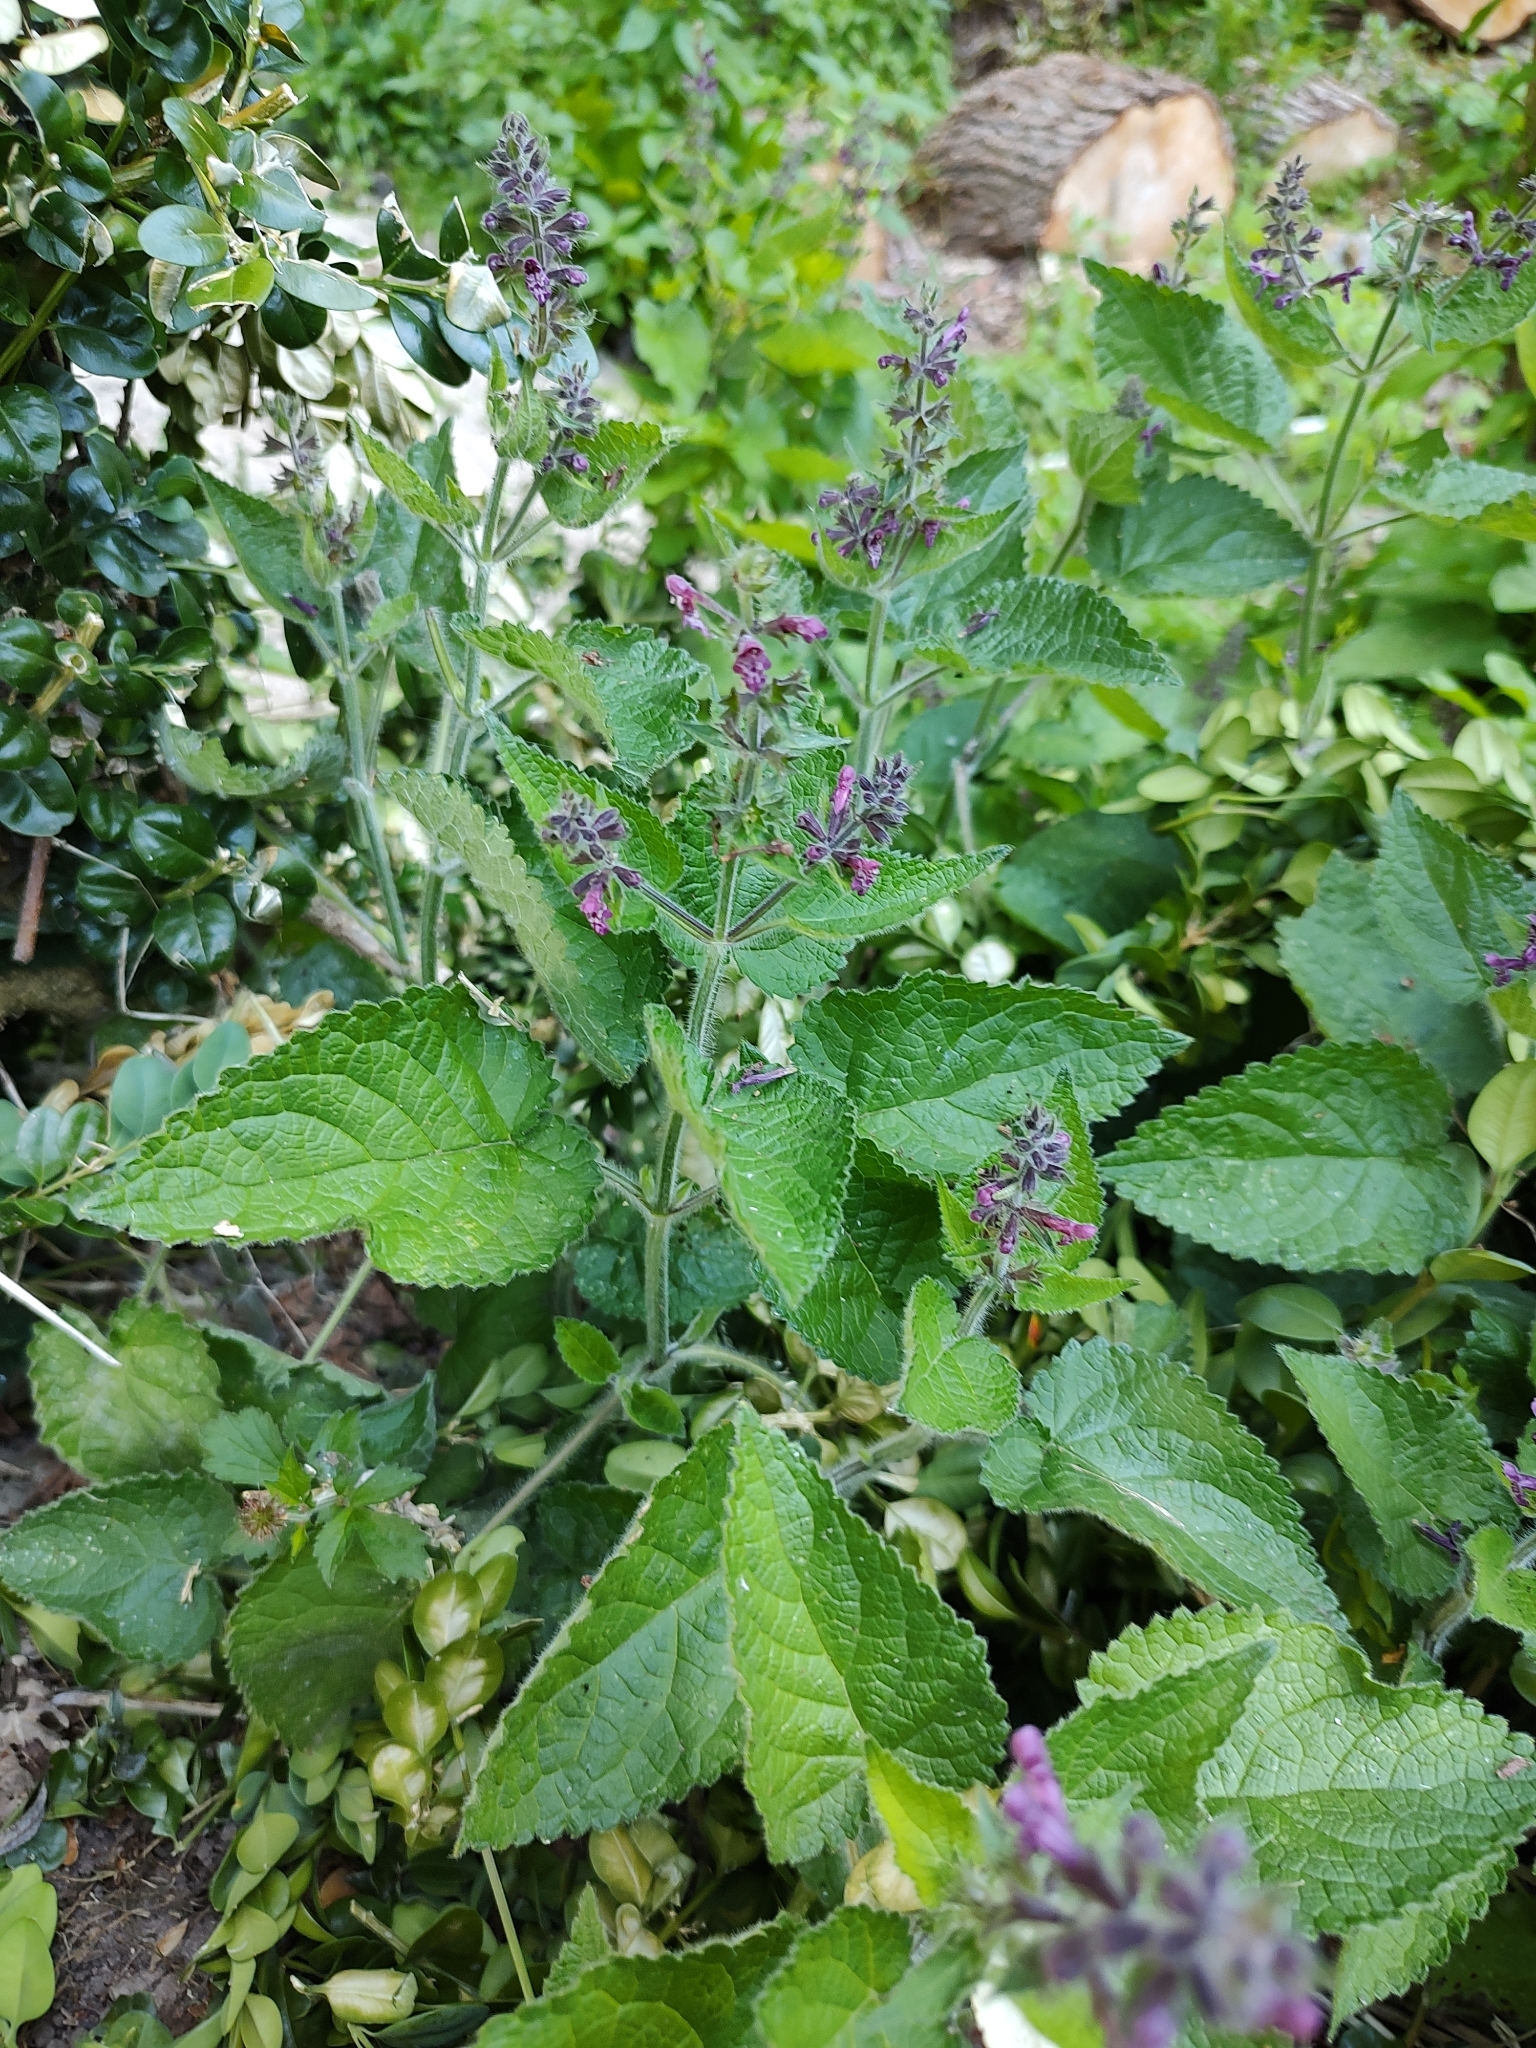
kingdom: Plantae
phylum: Tracheophyta
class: Magnoliopsida
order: Lamiales
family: Lamiaceae
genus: Stachys
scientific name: Stachys sylvatica
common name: Hedge woundwort
